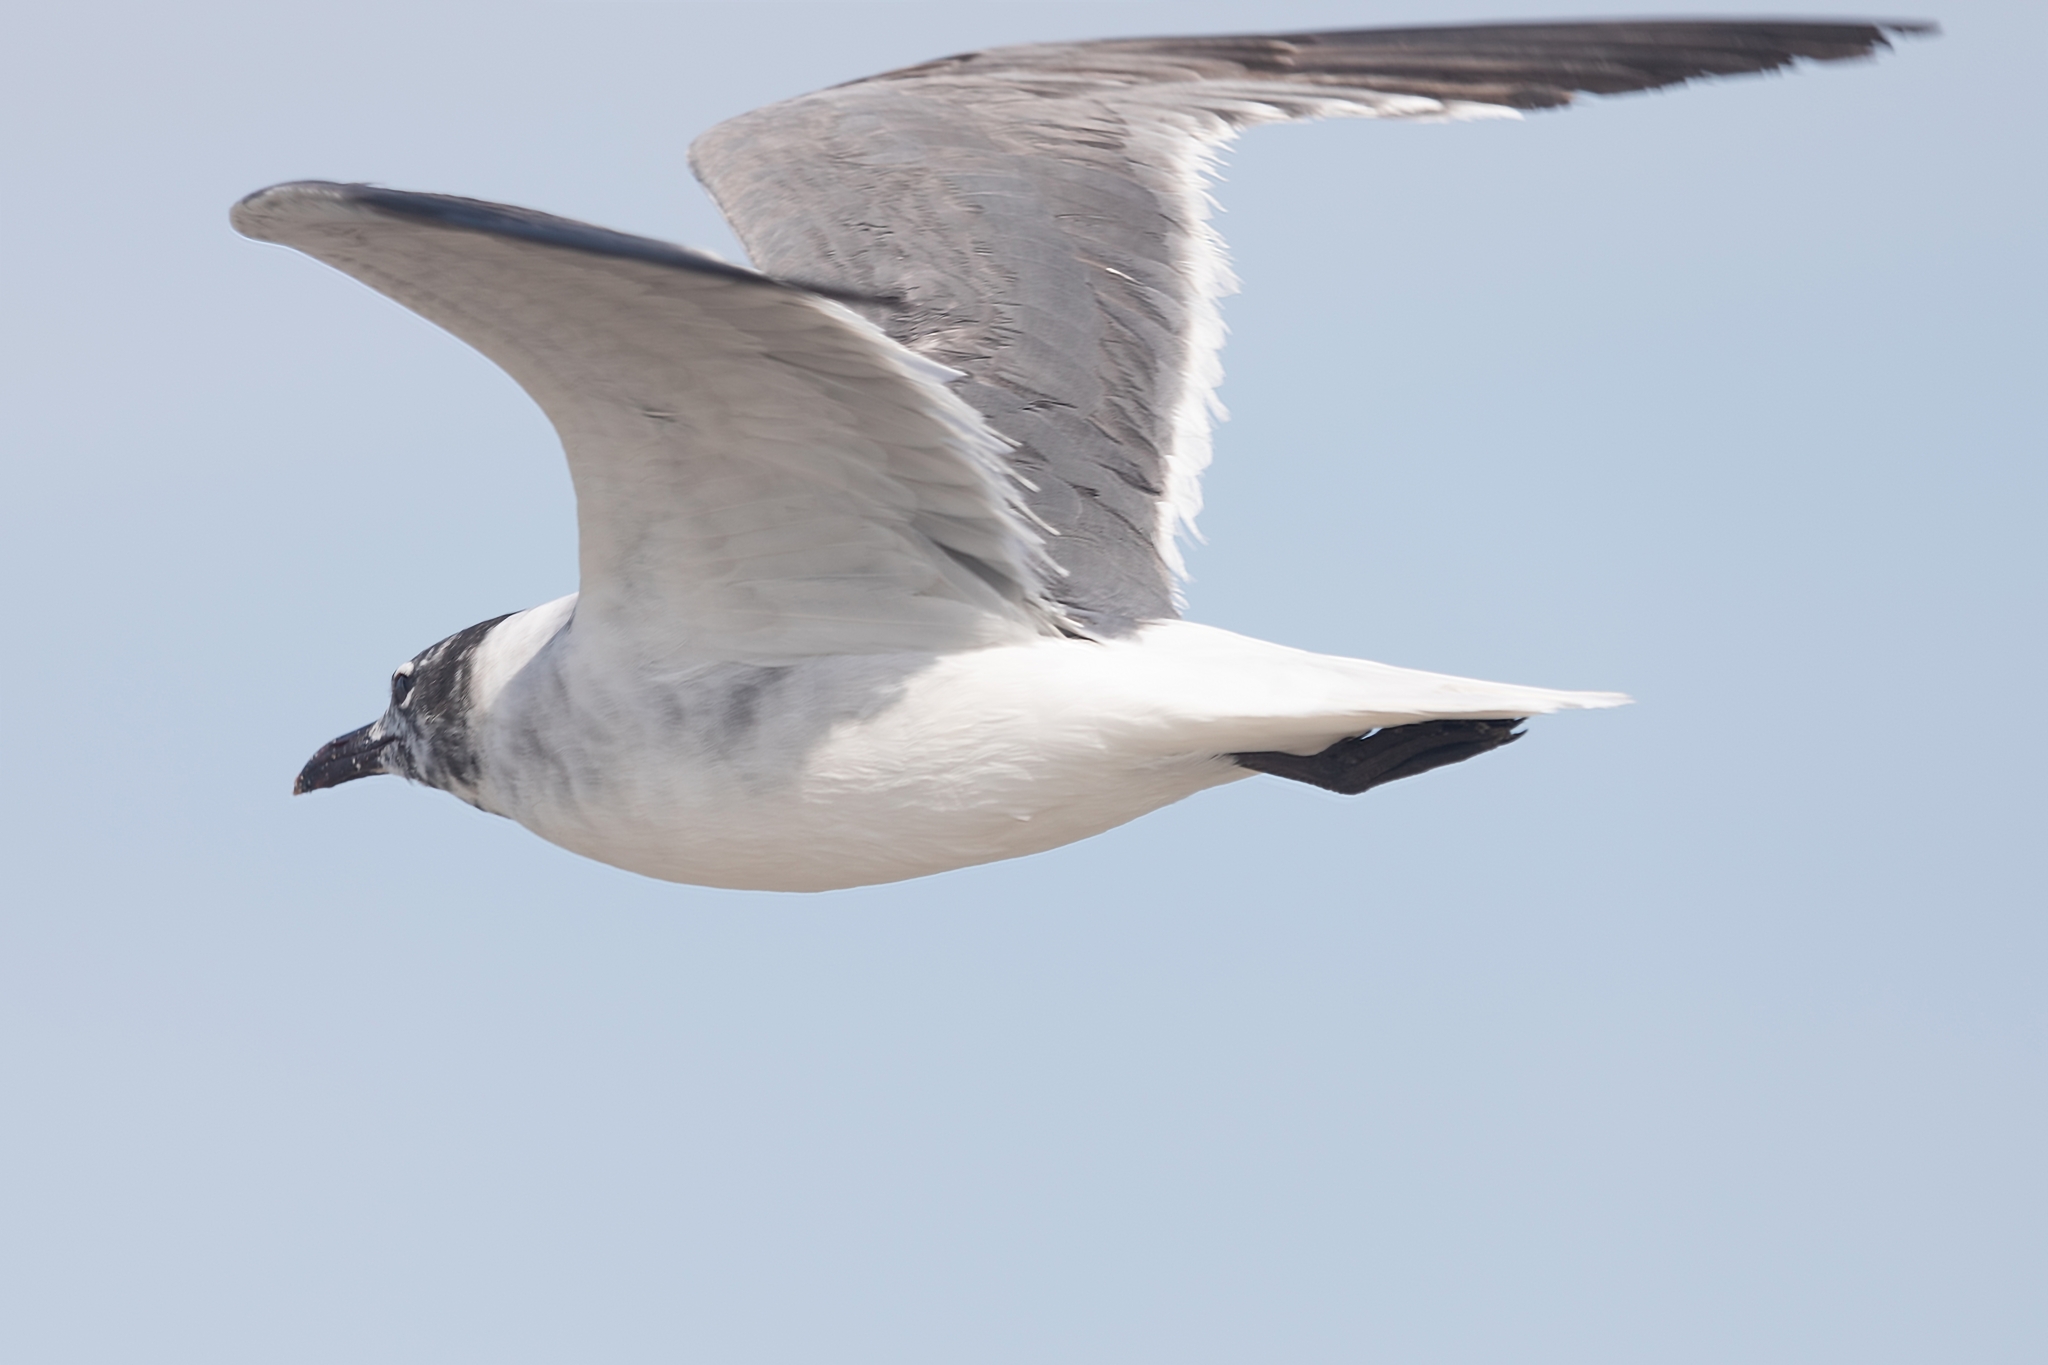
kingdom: Animalia
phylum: Chordata
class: Aves
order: Charadriiformes
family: Laridae
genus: Leucophaeus
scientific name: Leucophaeus atricilla
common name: Laughing gull
